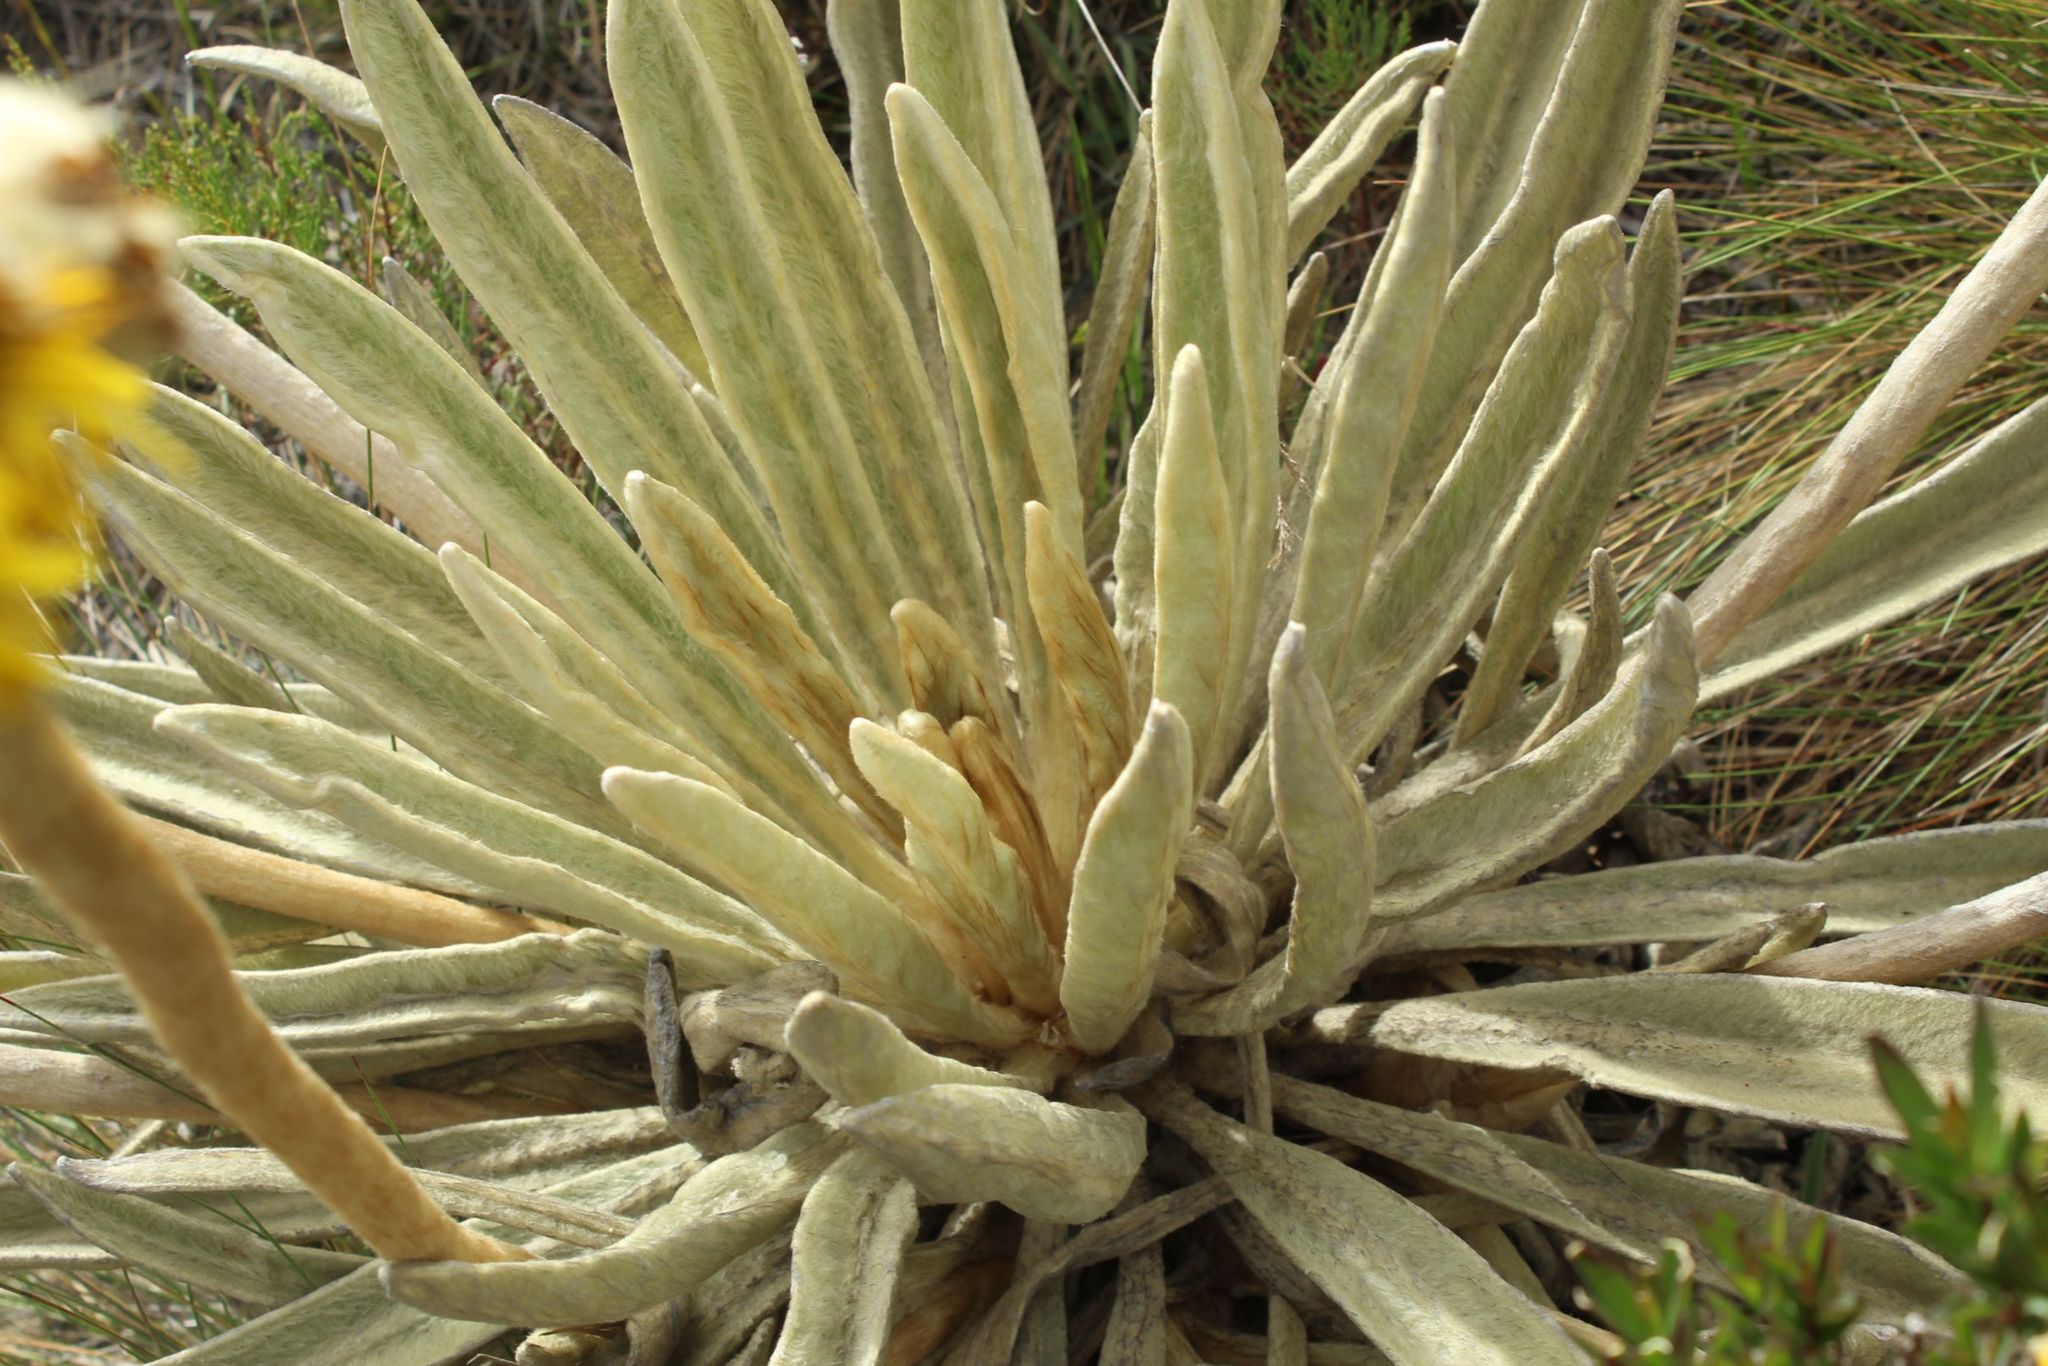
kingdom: Plantae
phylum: Tracheophyta
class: Magnoliopsida
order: Asterales
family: Asteraceae
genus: Espeletia
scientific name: Espeletia congestiflora
